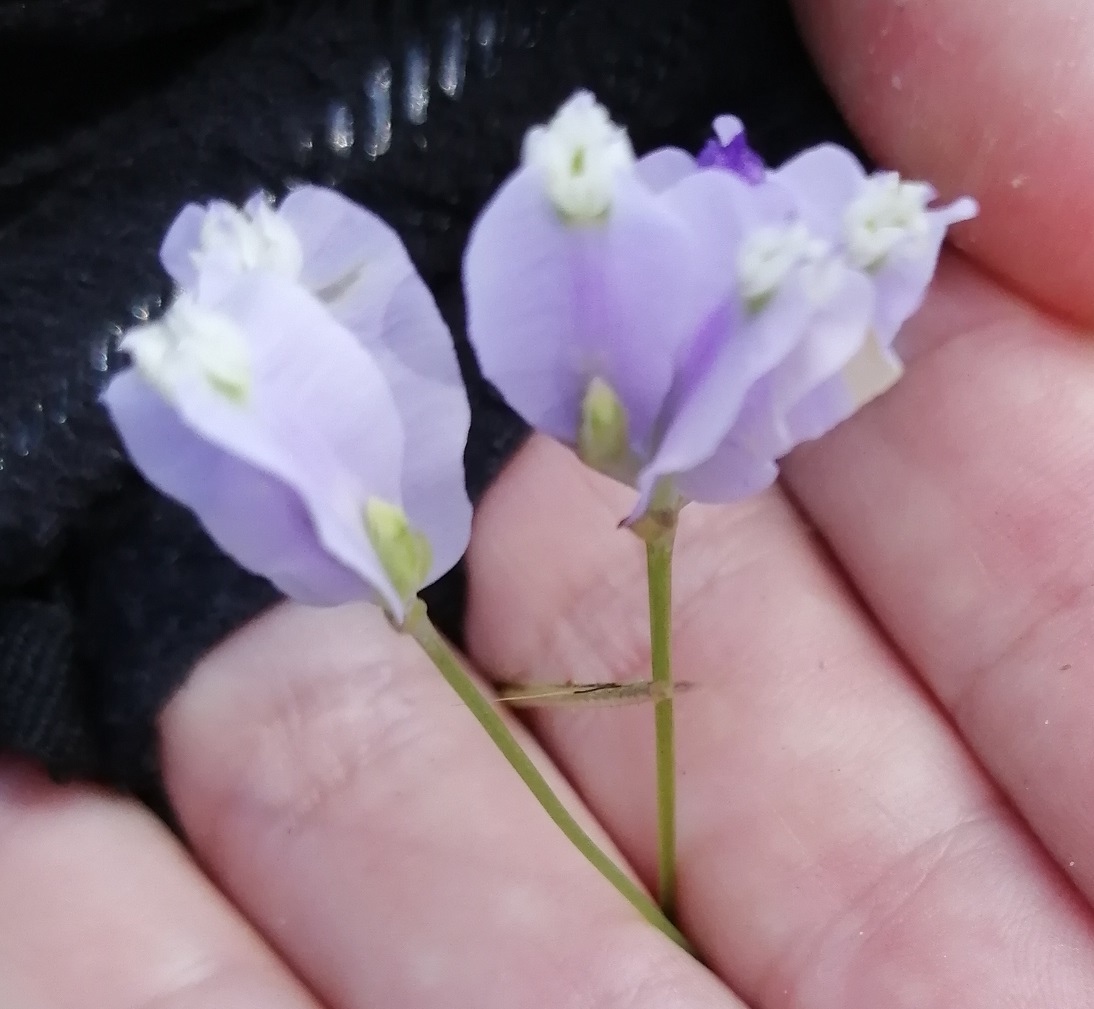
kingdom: Plantae
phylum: Tracheophyta
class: Liliopsida
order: Dioscoreales
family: Burmanniaceae
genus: Burmannia
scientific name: Burmannia coelestis
